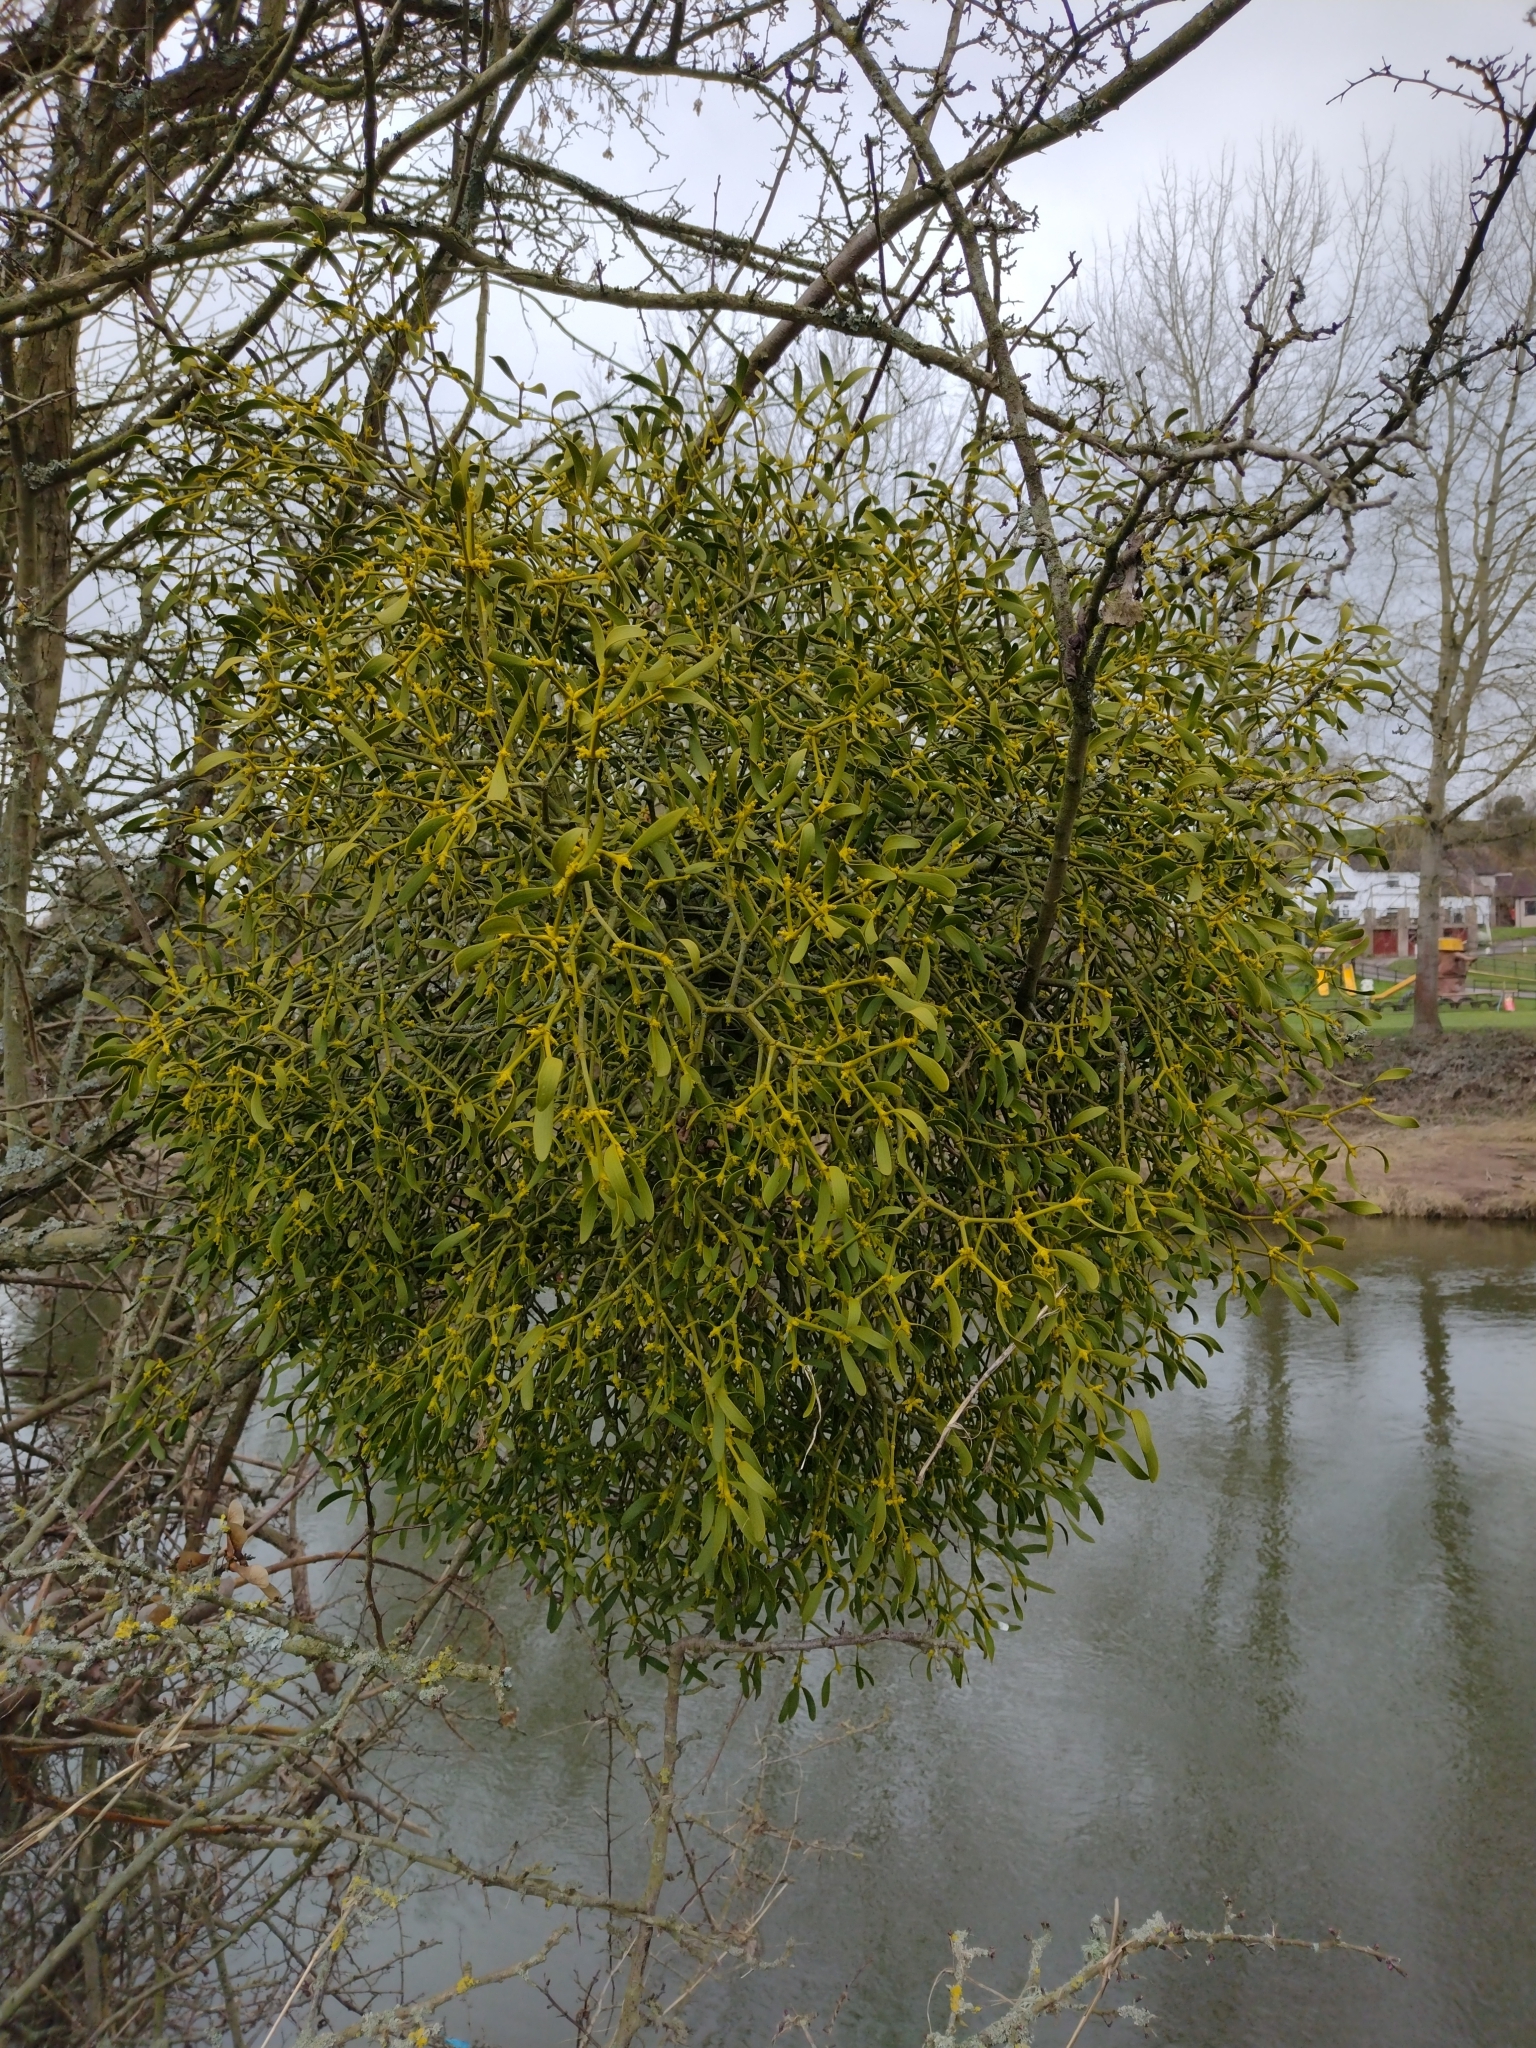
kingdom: Plantae
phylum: Tracheophyta
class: Magnoliopsida
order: Santalales
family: Viscaceae
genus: Viscum
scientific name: Viscum album
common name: Mistletoe
